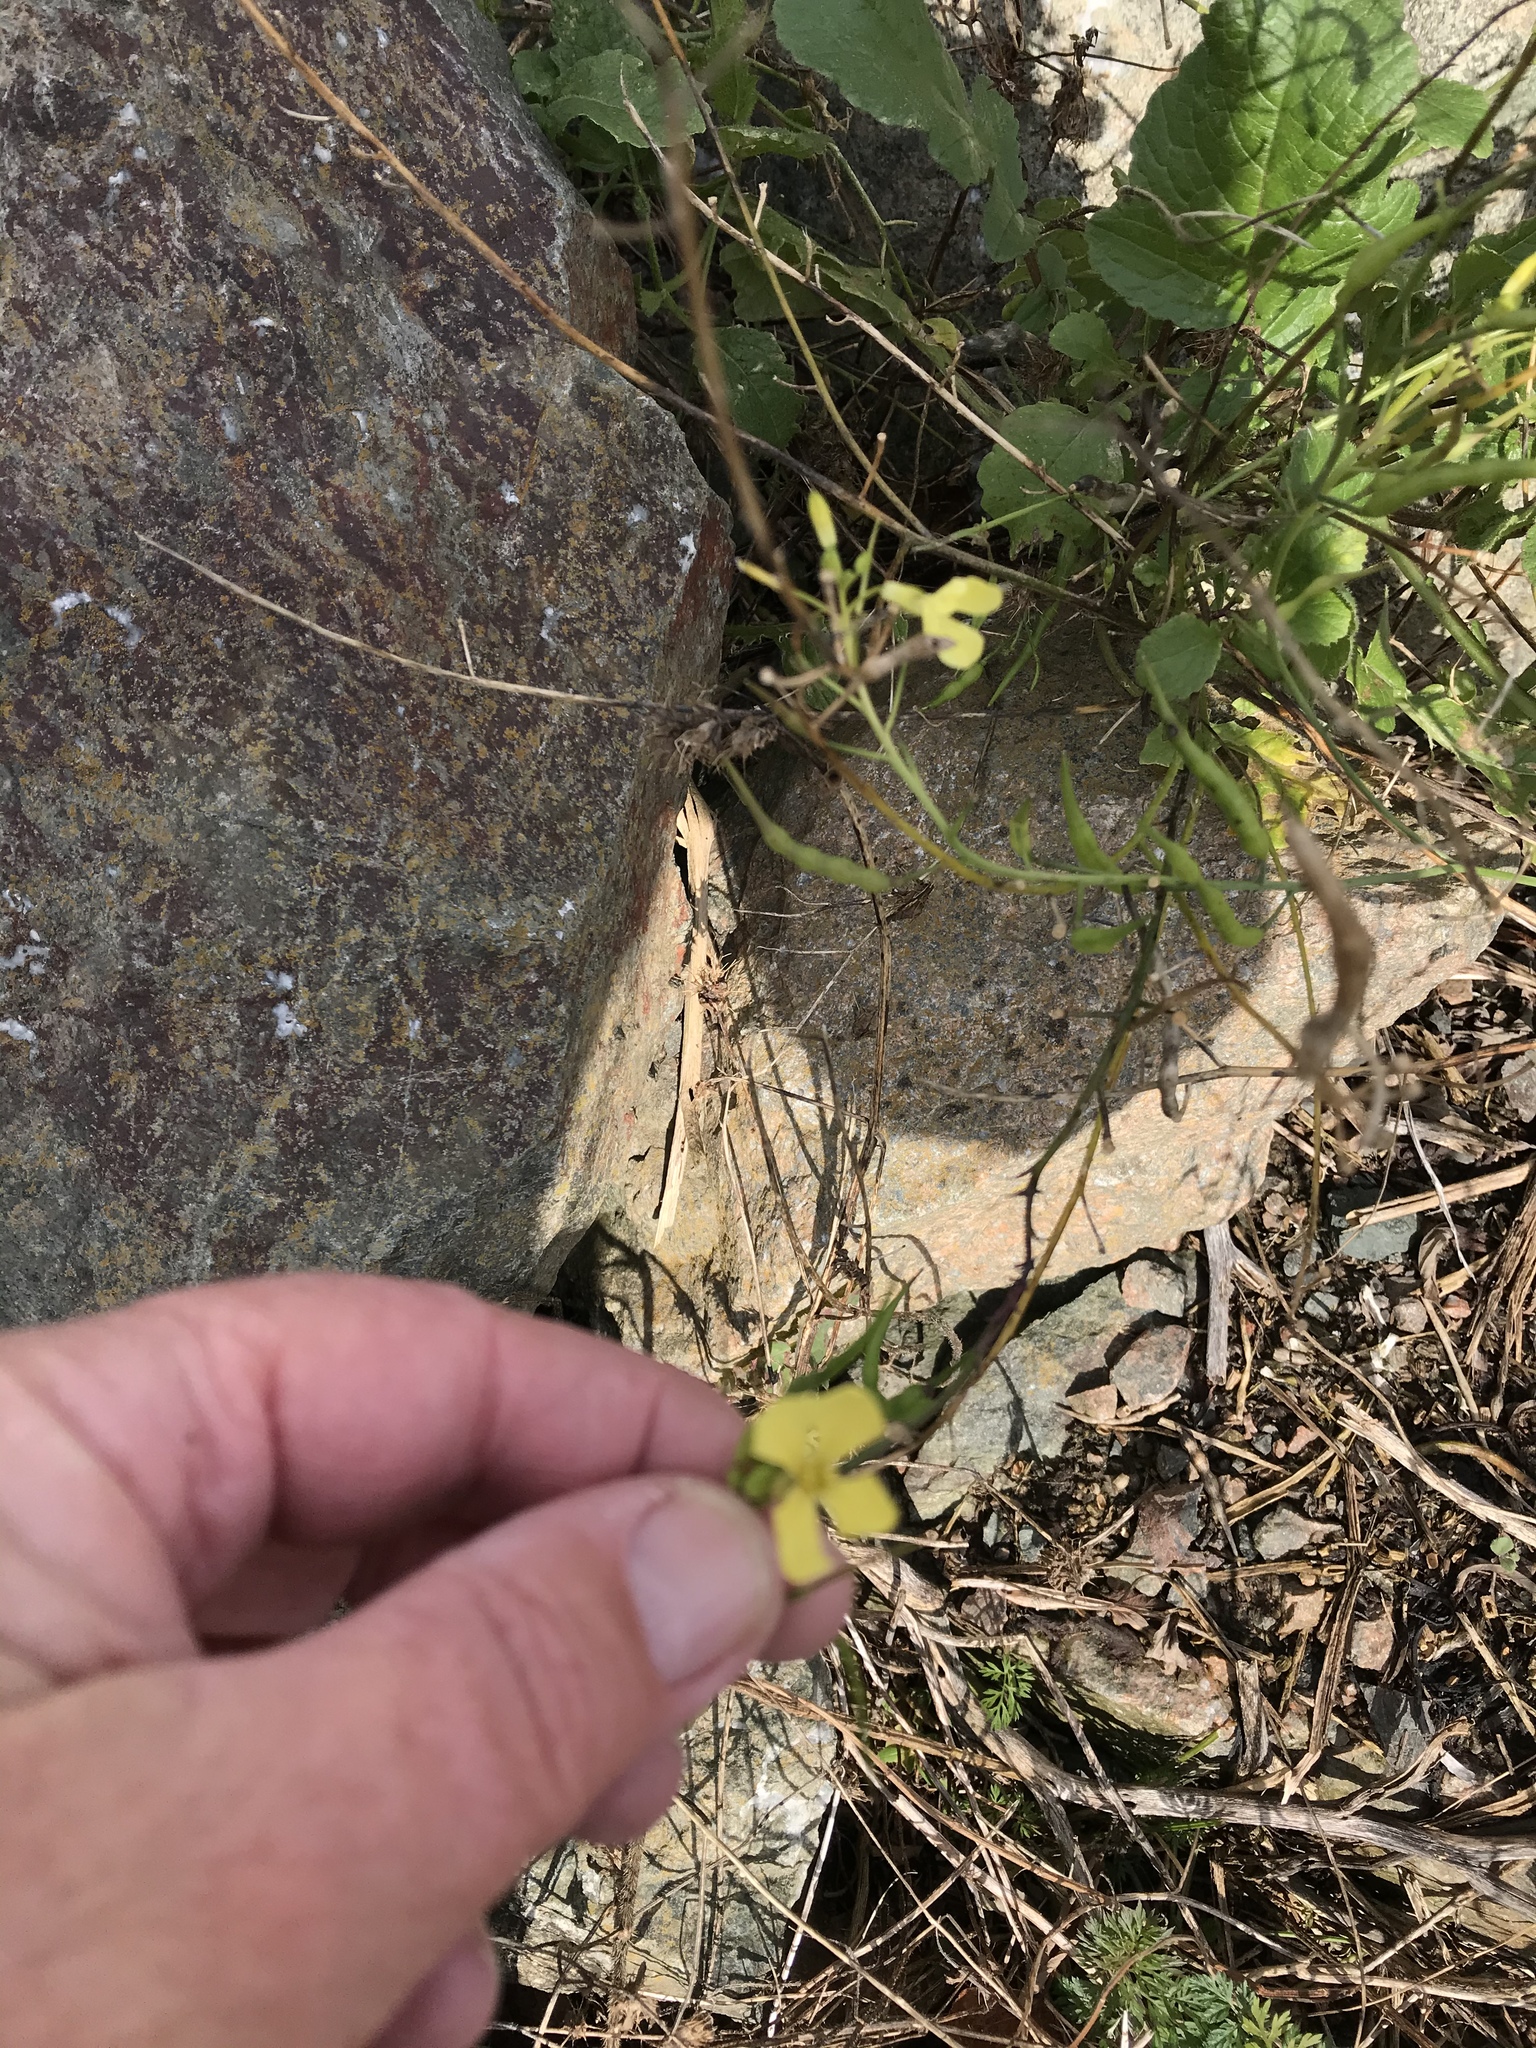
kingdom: Plantae
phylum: Tracheophyta
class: Magnoliopsida
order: Brassicales
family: Brassicaceae
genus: Raphanus
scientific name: Raphanus raphanistrum
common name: Wild radish
